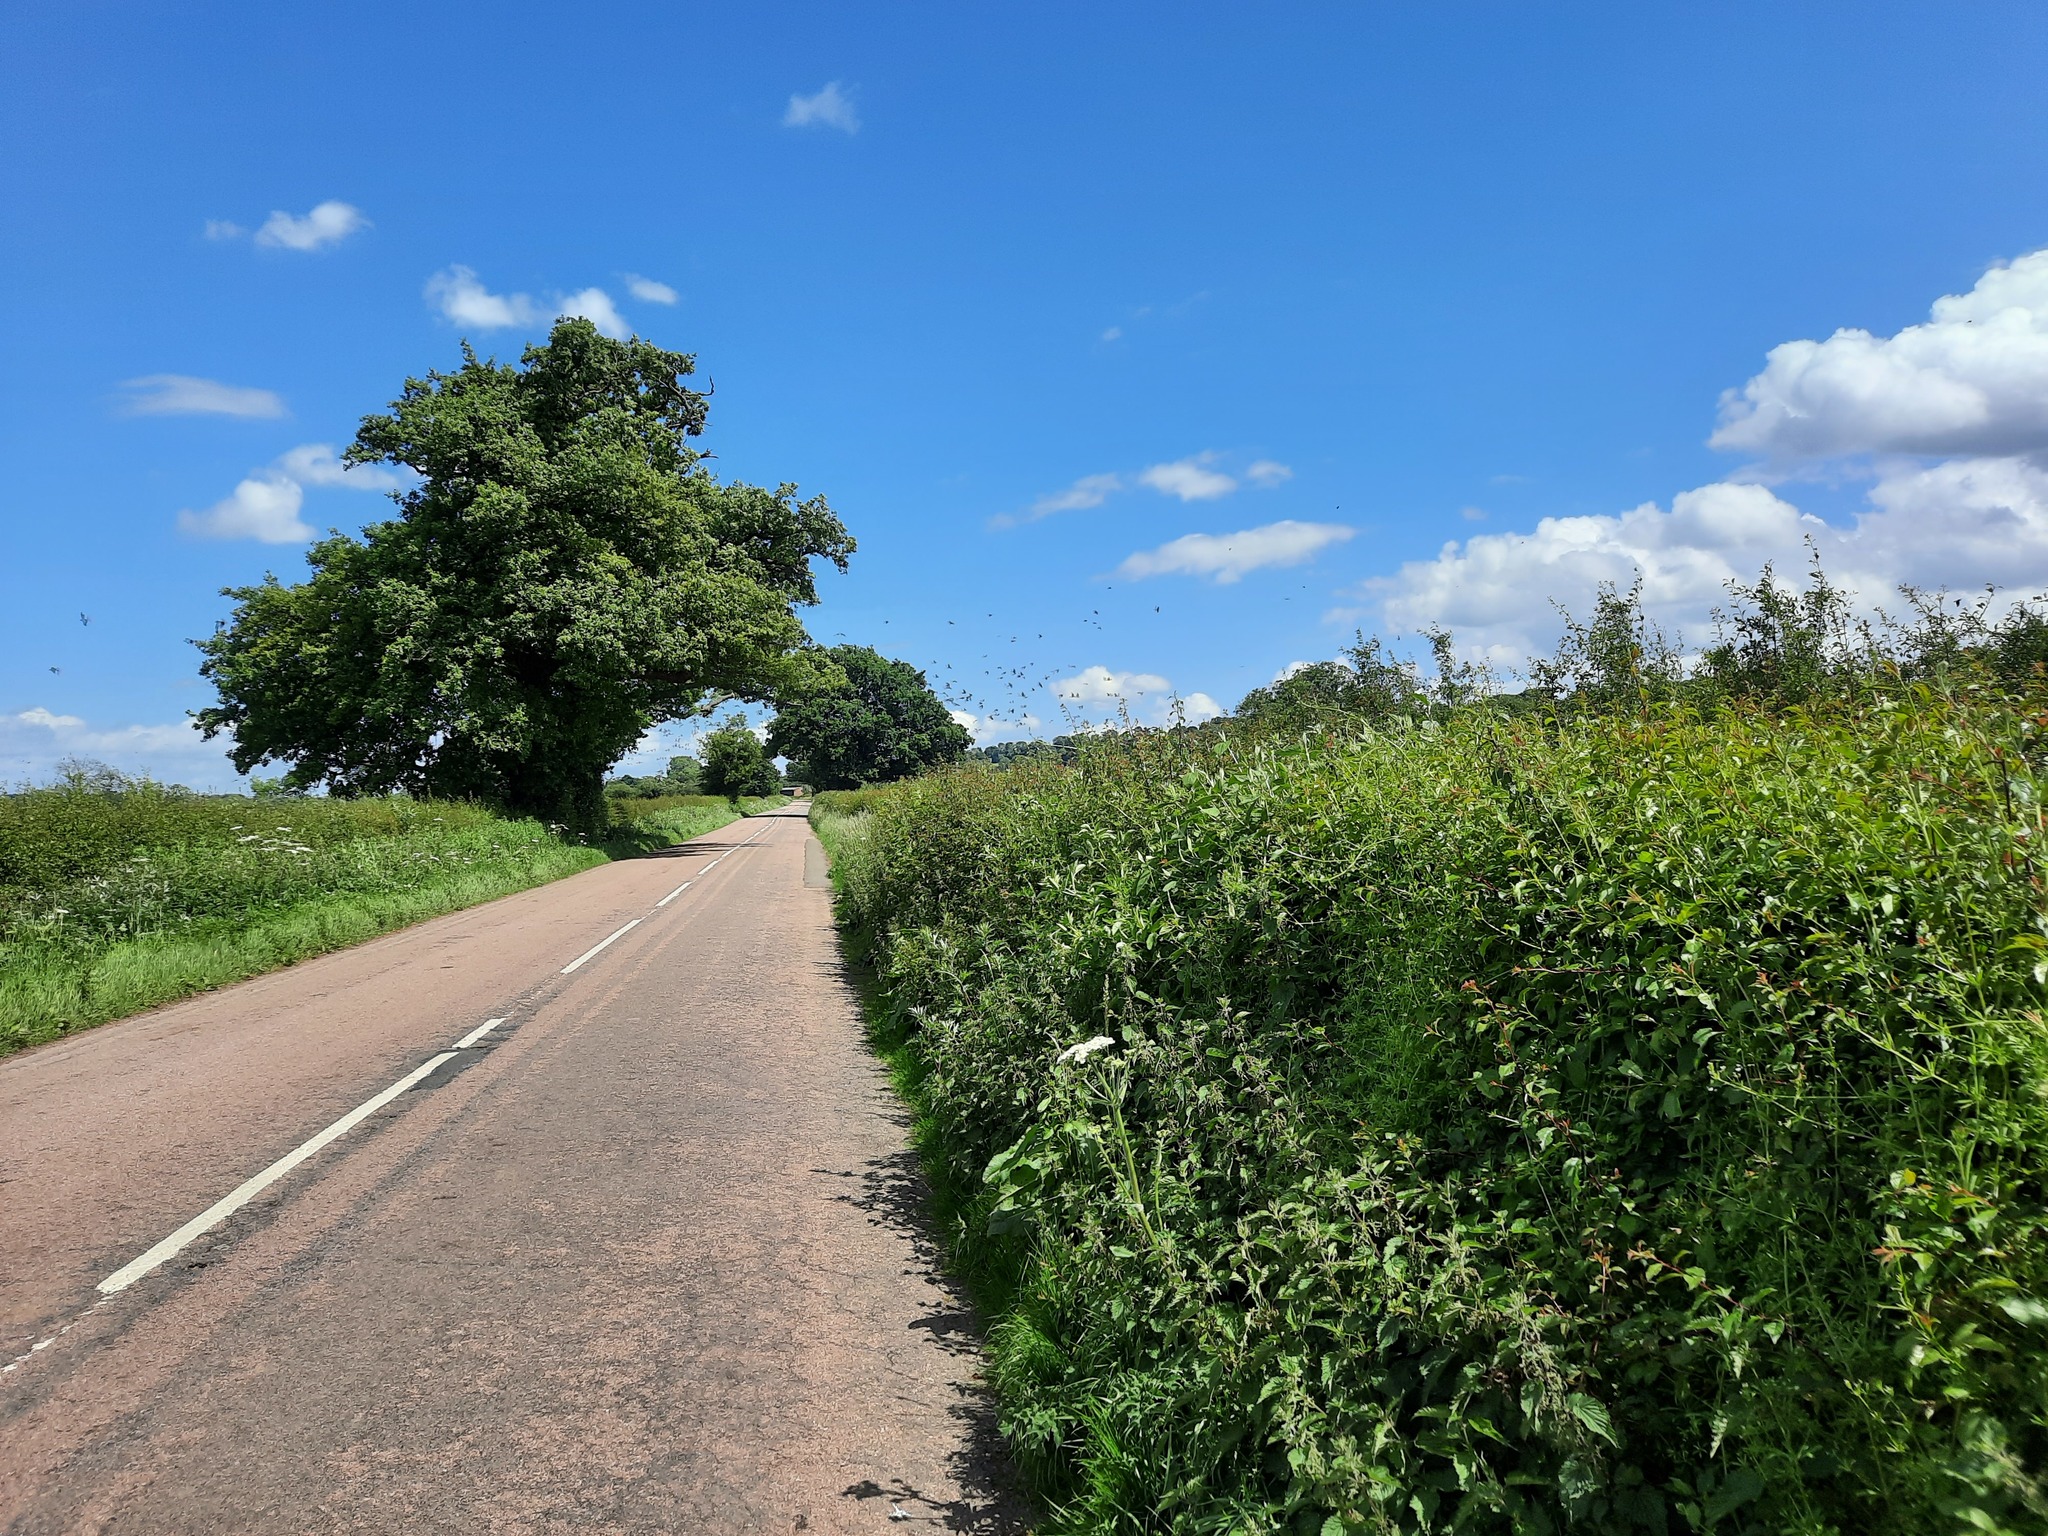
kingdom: Animalia
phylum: Chordata
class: Aves
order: Passeriformes
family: Corvidae
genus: Corvus
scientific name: Corvus corone
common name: Carrion crow
